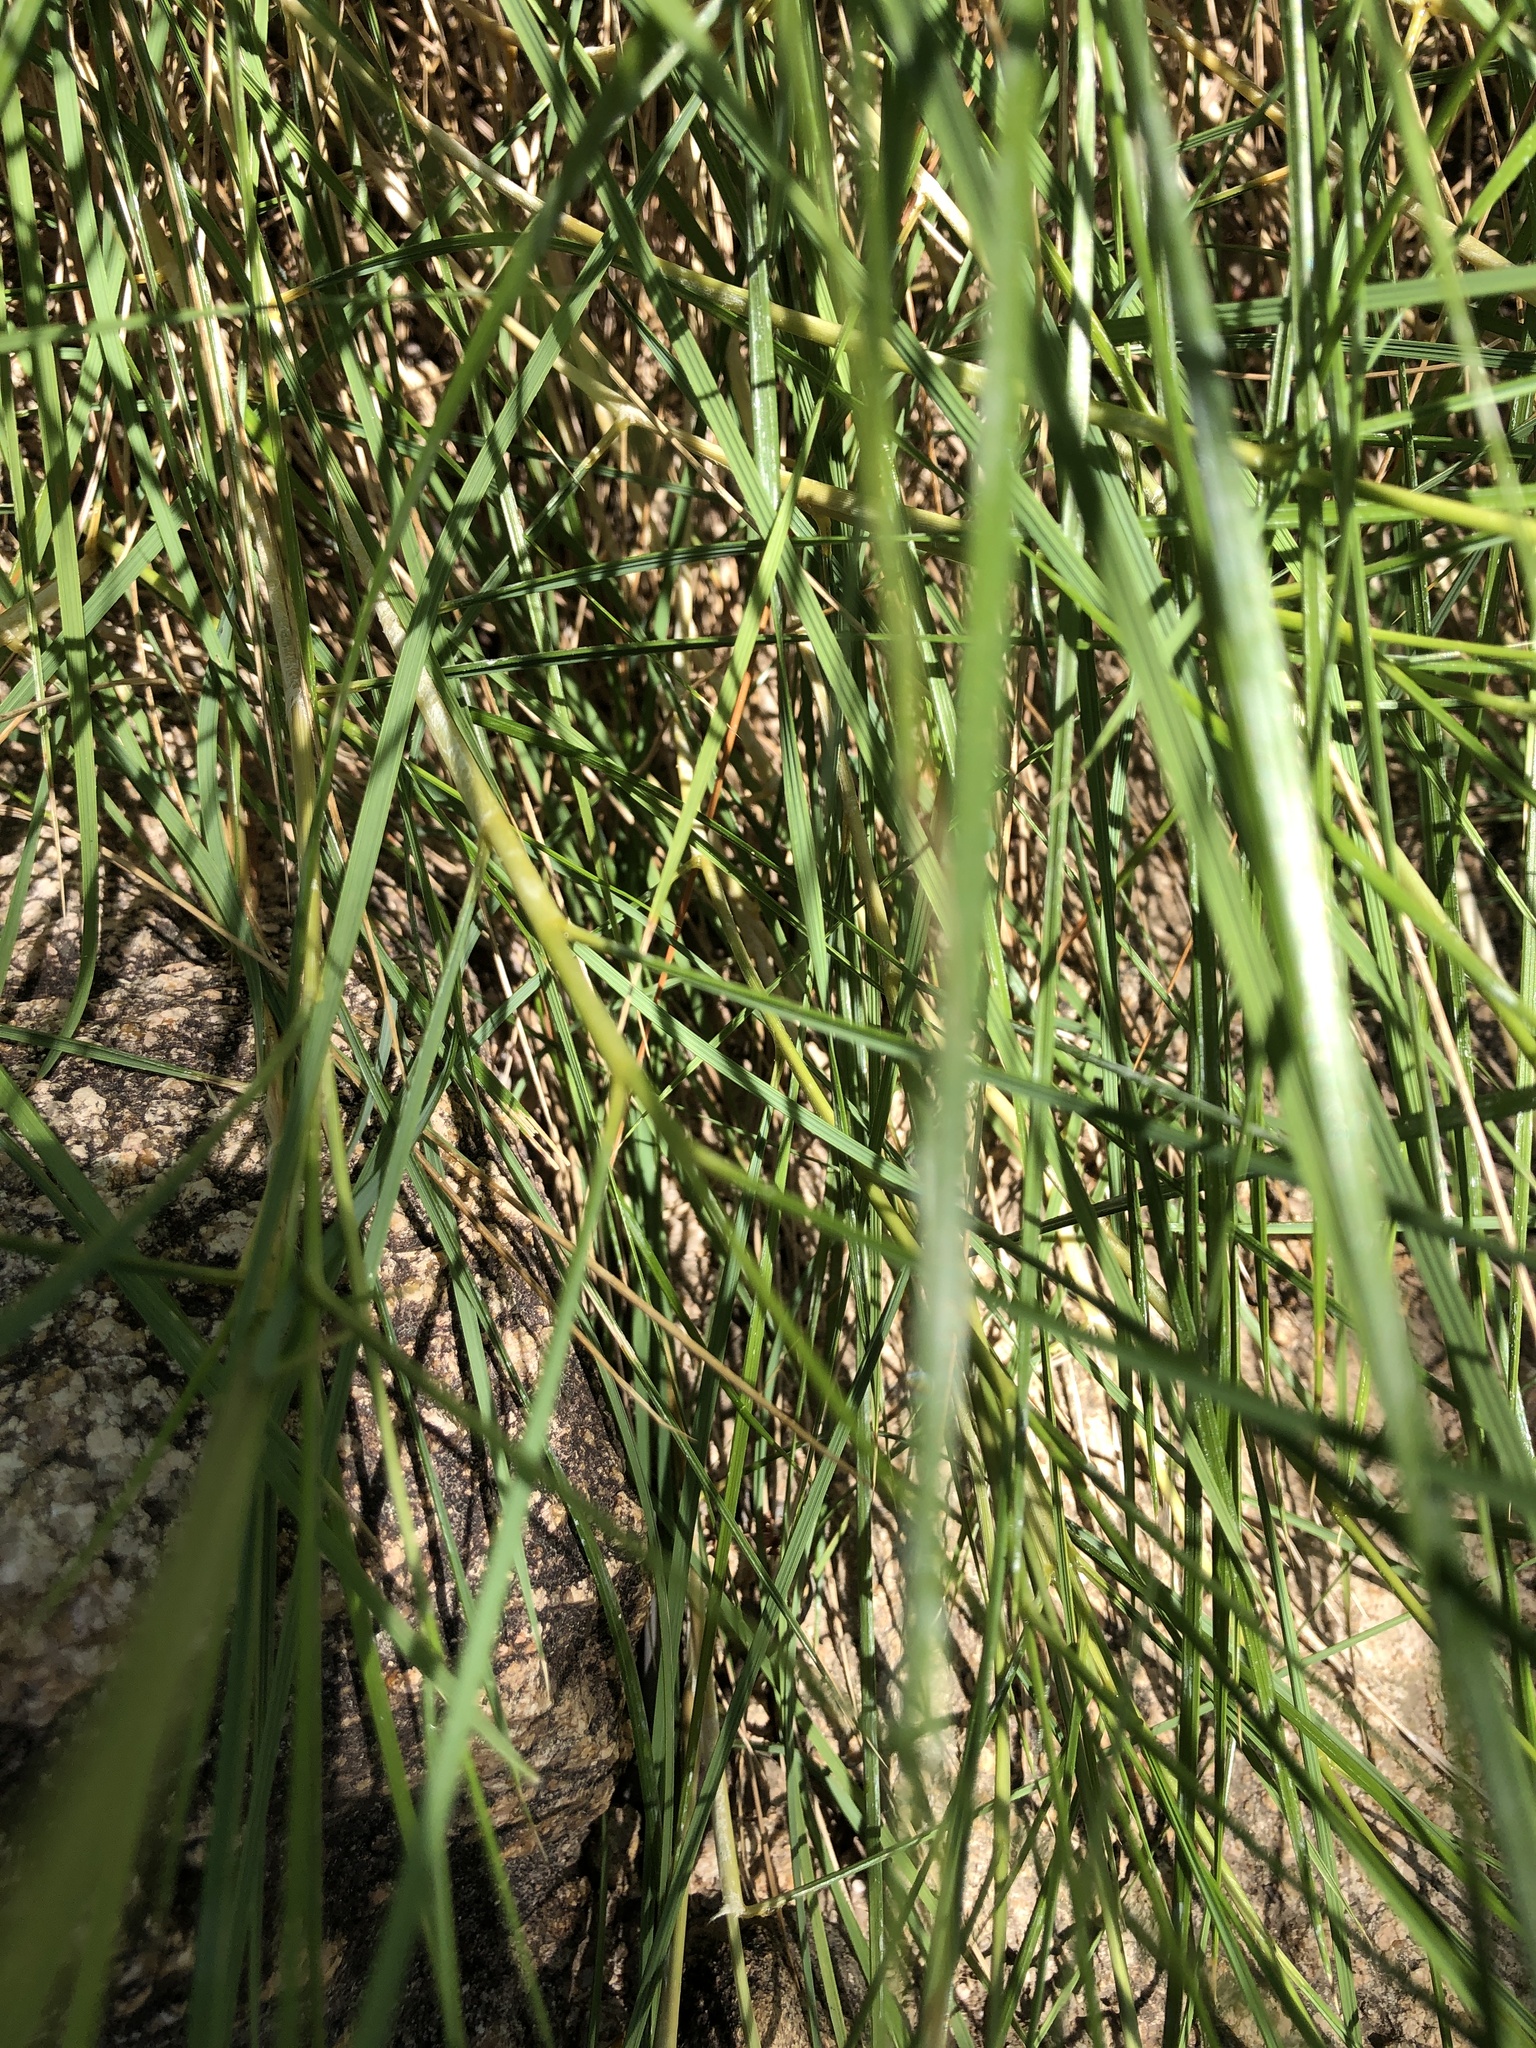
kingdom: Plantae
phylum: Tracheophyta
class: Liliopsida
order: Poales
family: Poaceae
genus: Triodia
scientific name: Triodia stenostachya
